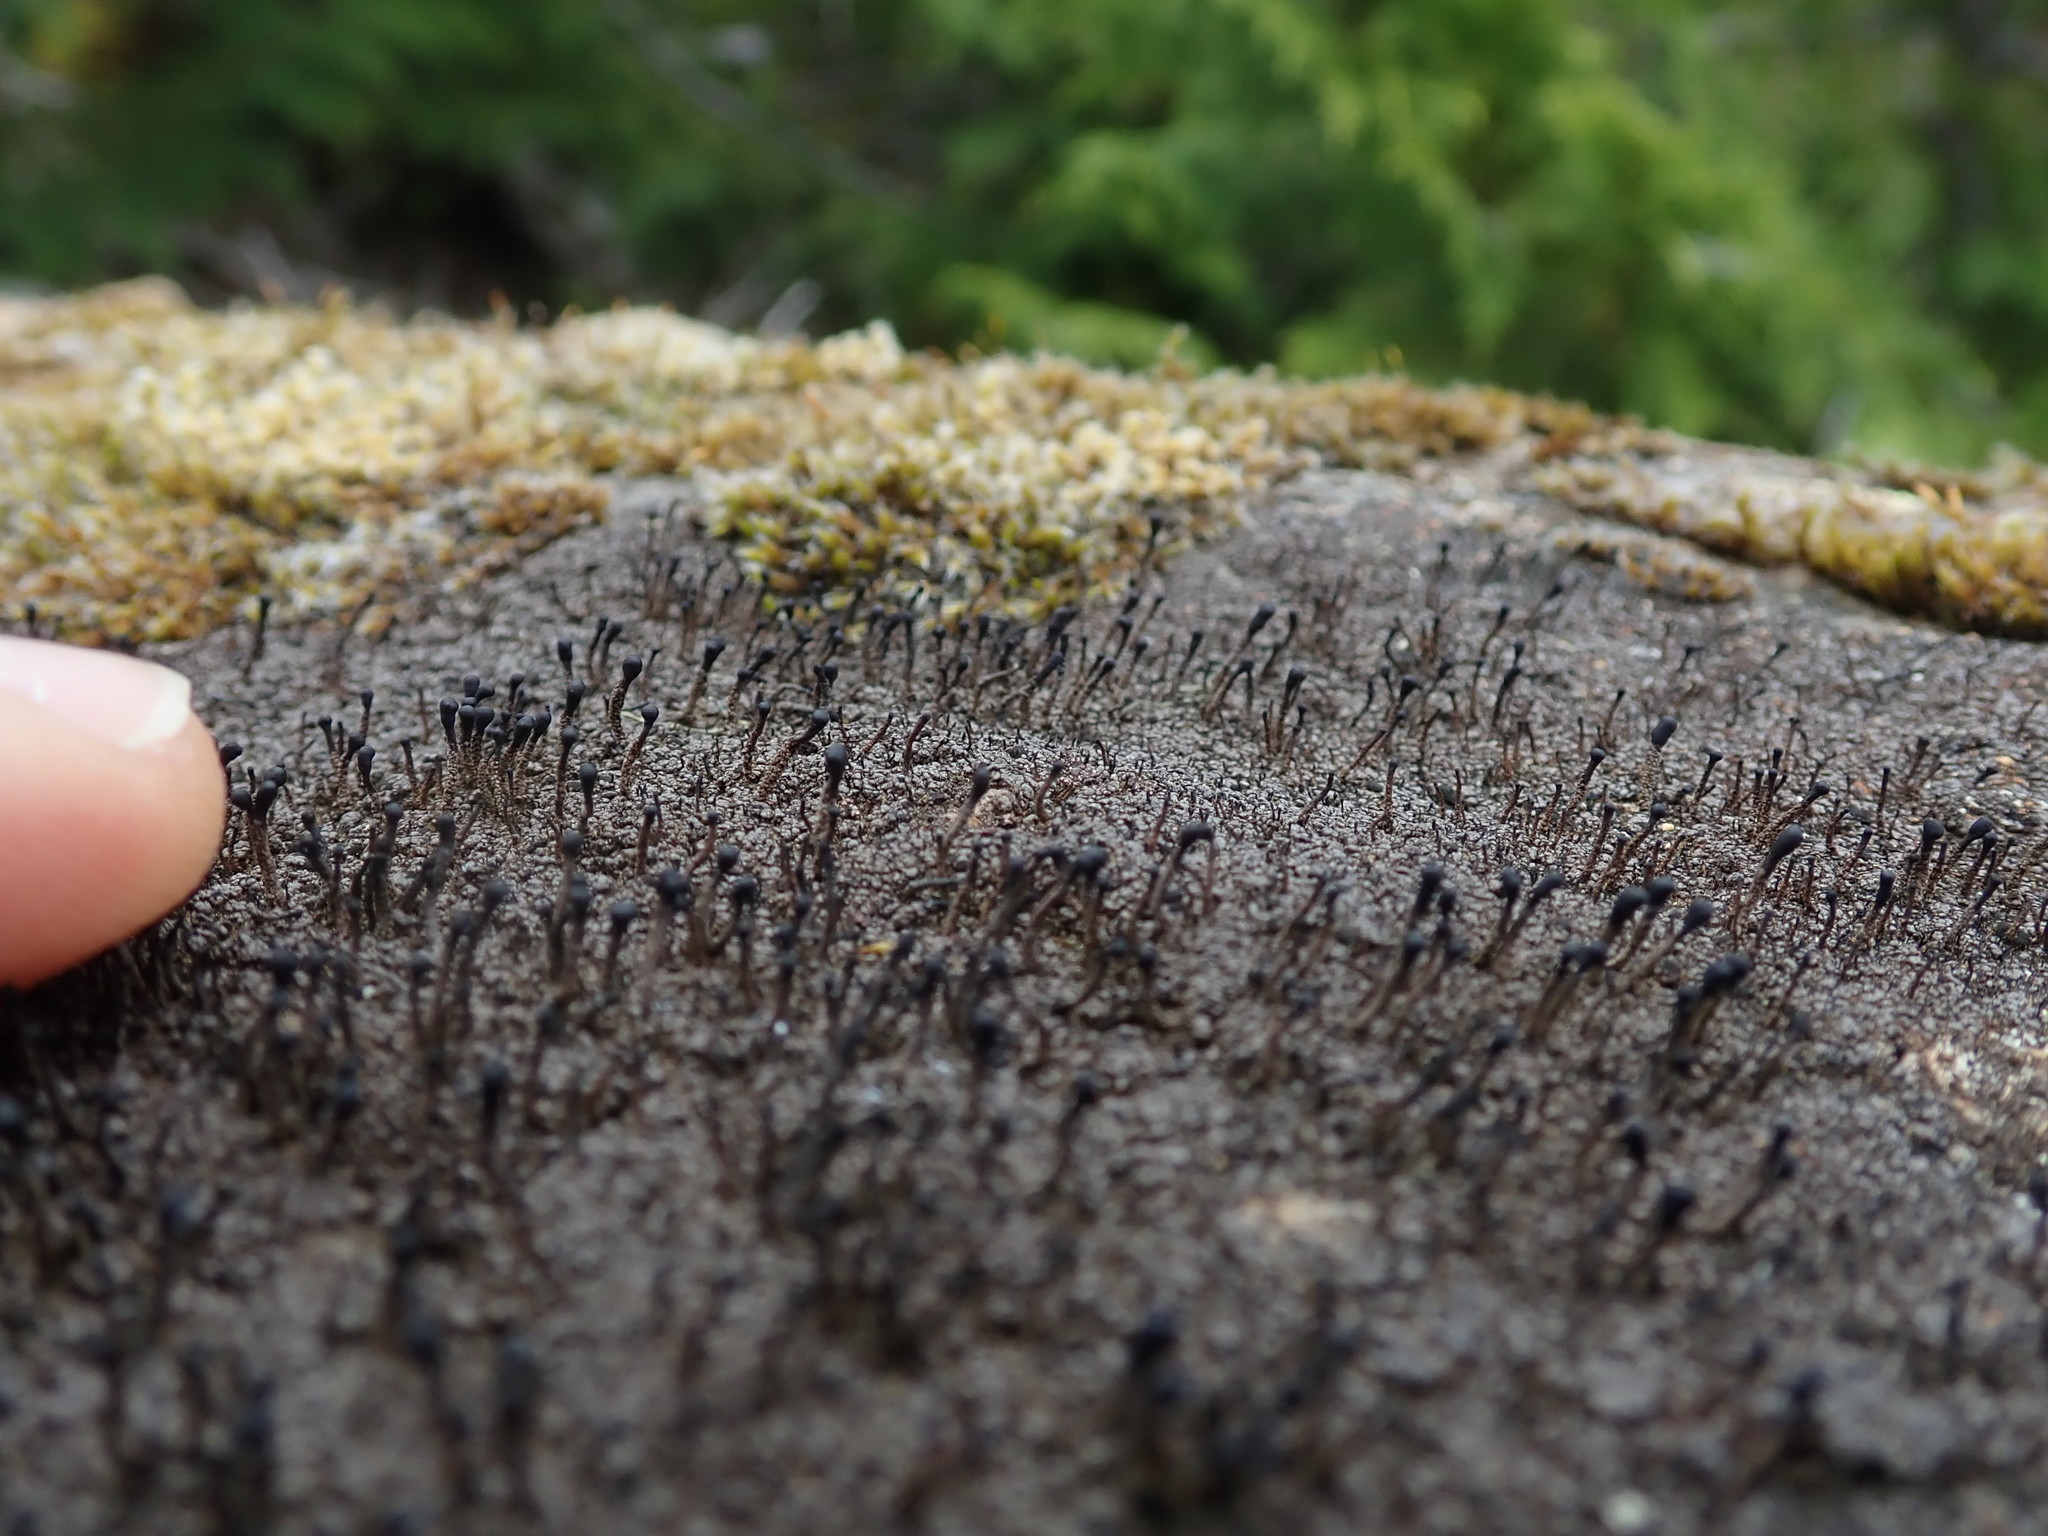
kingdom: Fungi
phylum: Ascomycota
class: Lecanoromycetes
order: Lecanorales
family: Cladoniaceae
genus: Pilophorus
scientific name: Pilophorus clavatus
